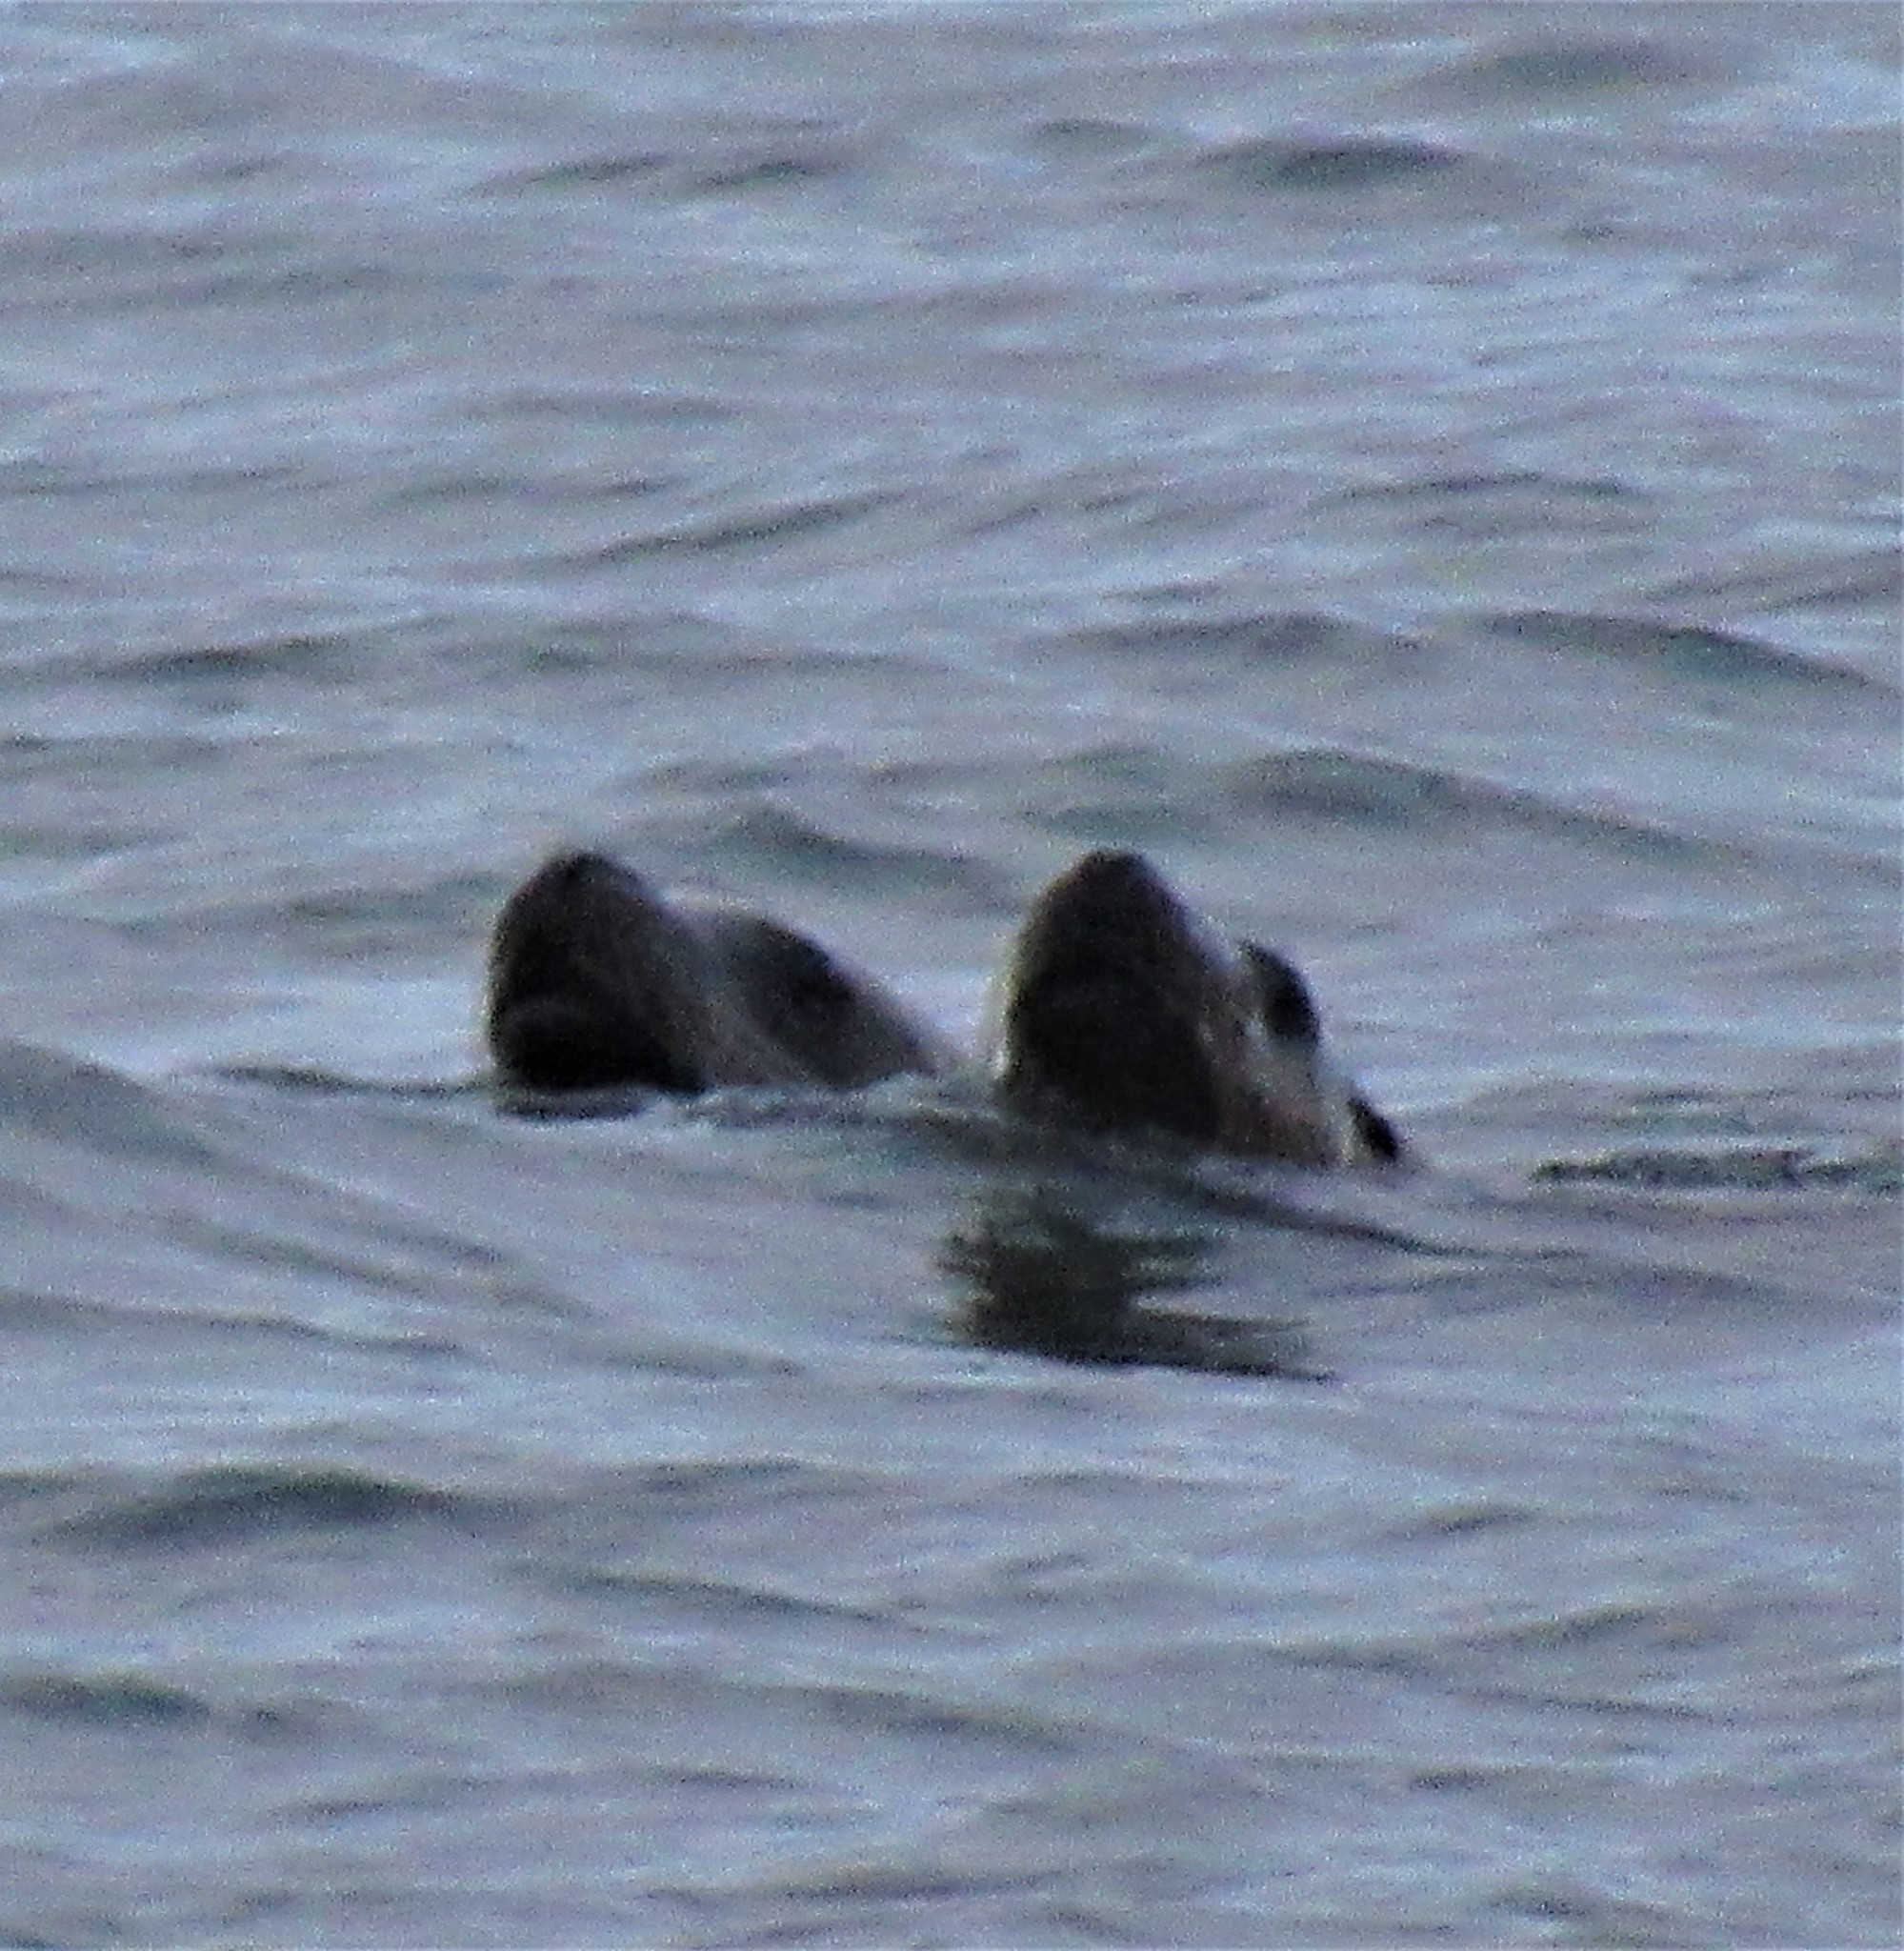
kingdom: Animalia
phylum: Chordata
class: Mammalia
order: Carnivora
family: Otariidae
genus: Eumetopias
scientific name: Eumetopias jubatus
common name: Steller sea lion
